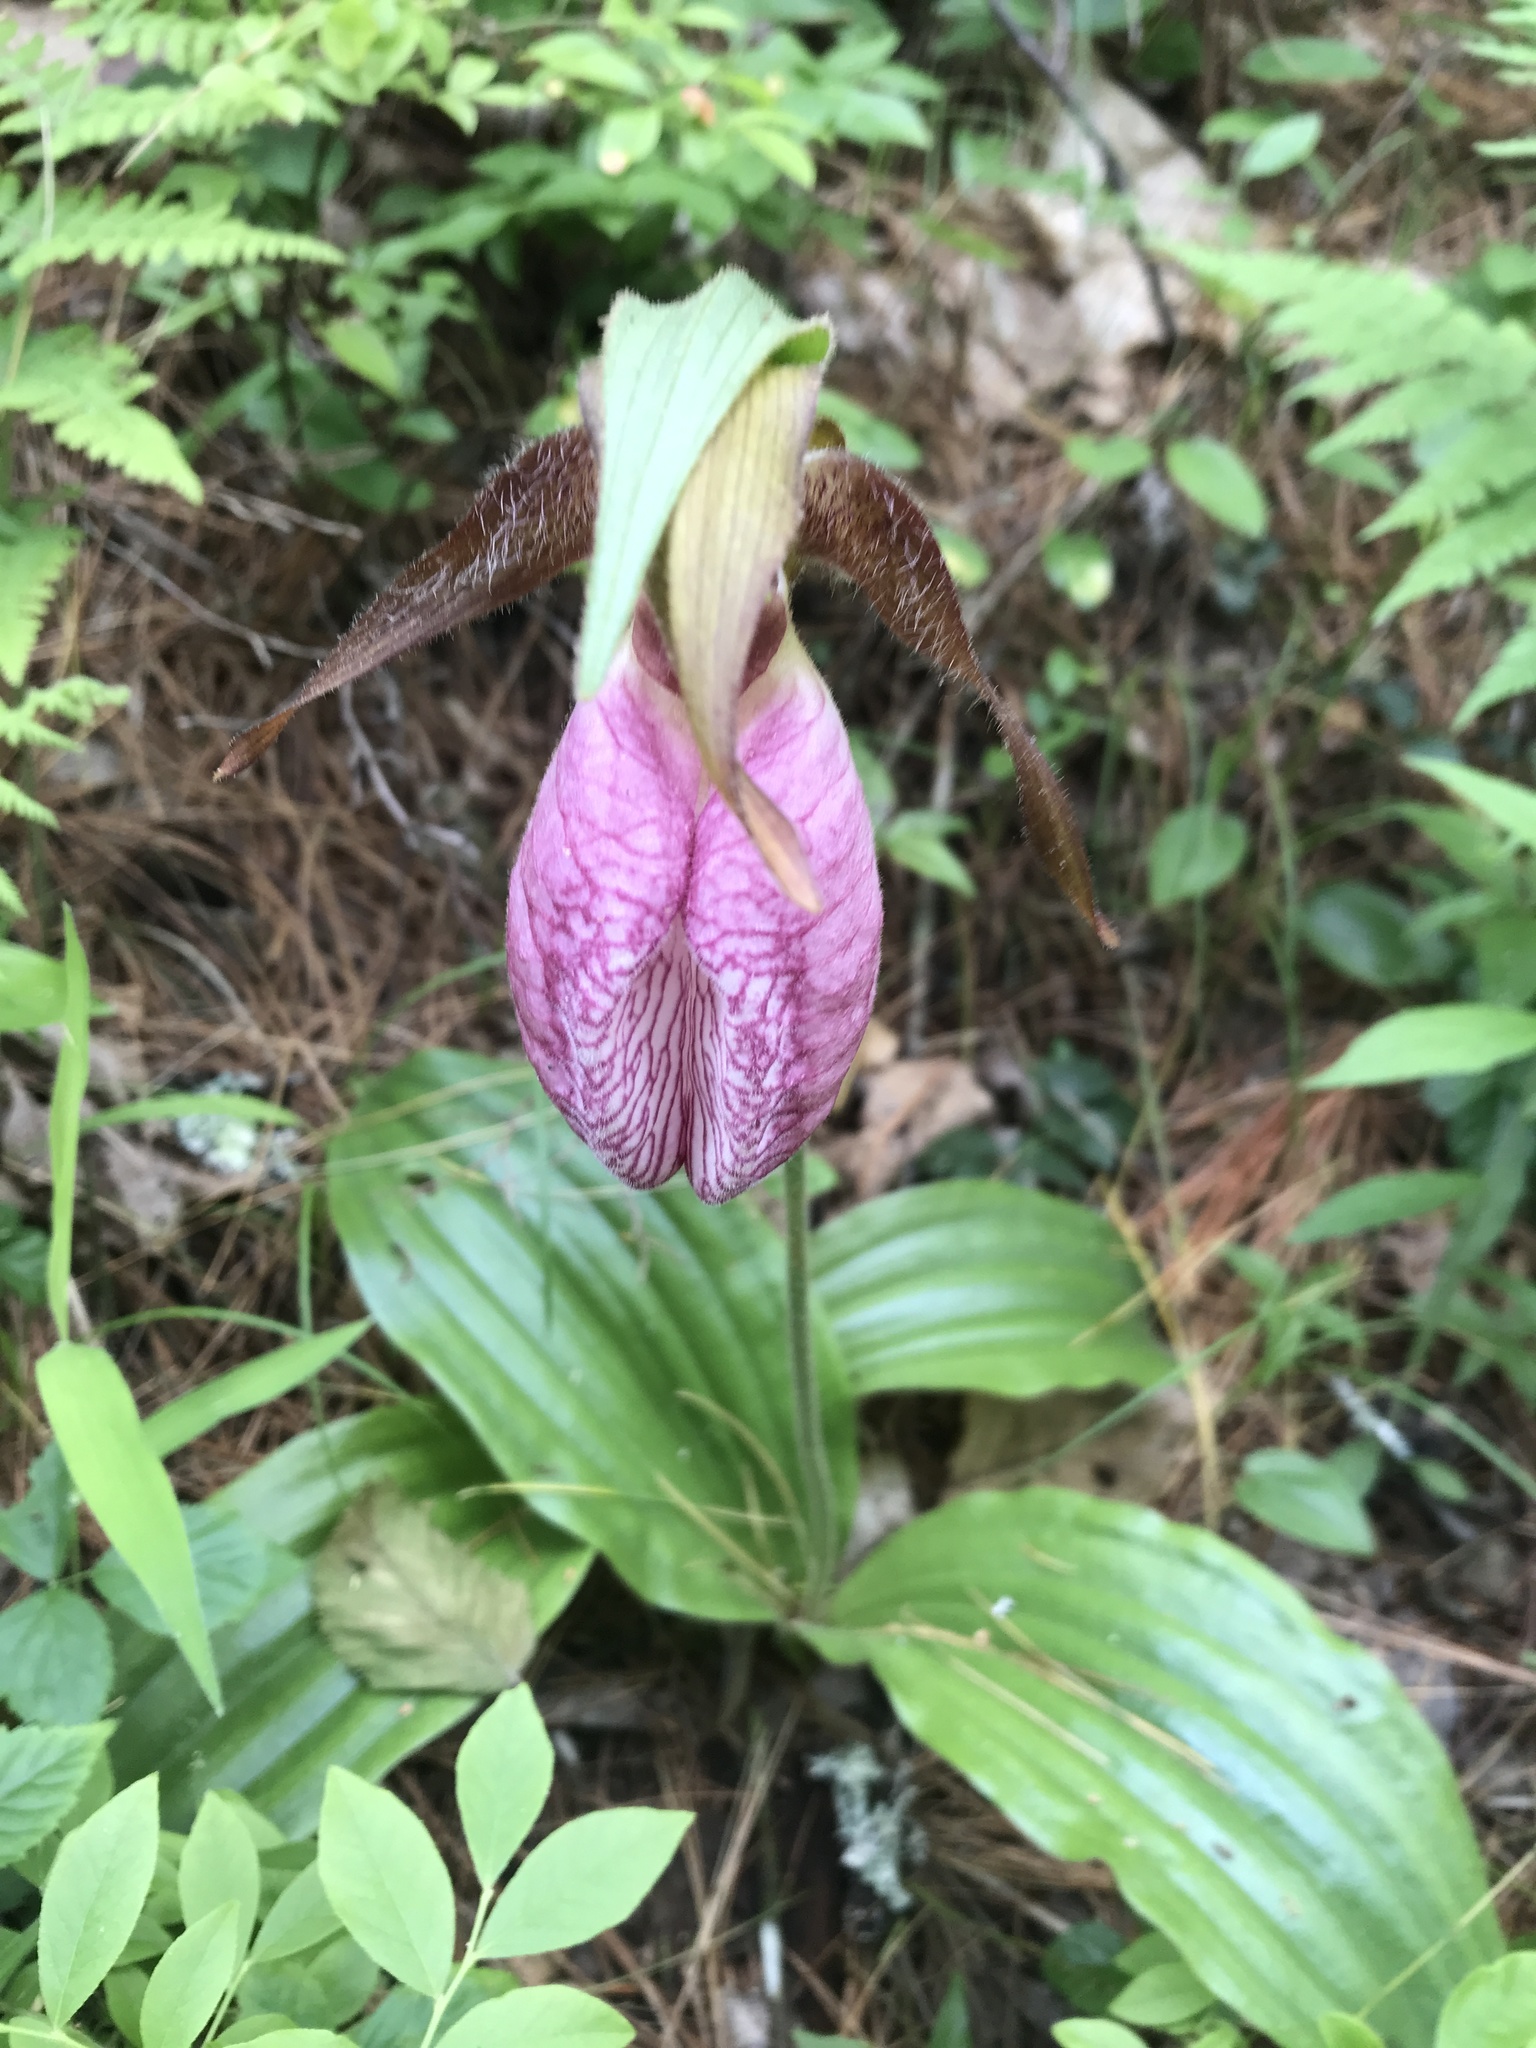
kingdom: Plantae
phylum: Tracheophyta
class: Liliopsida
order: Asparagales
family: Orchidaceae
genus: Cypripedium
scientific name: Cypripedium acaule
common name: Pink lady's-slipper
